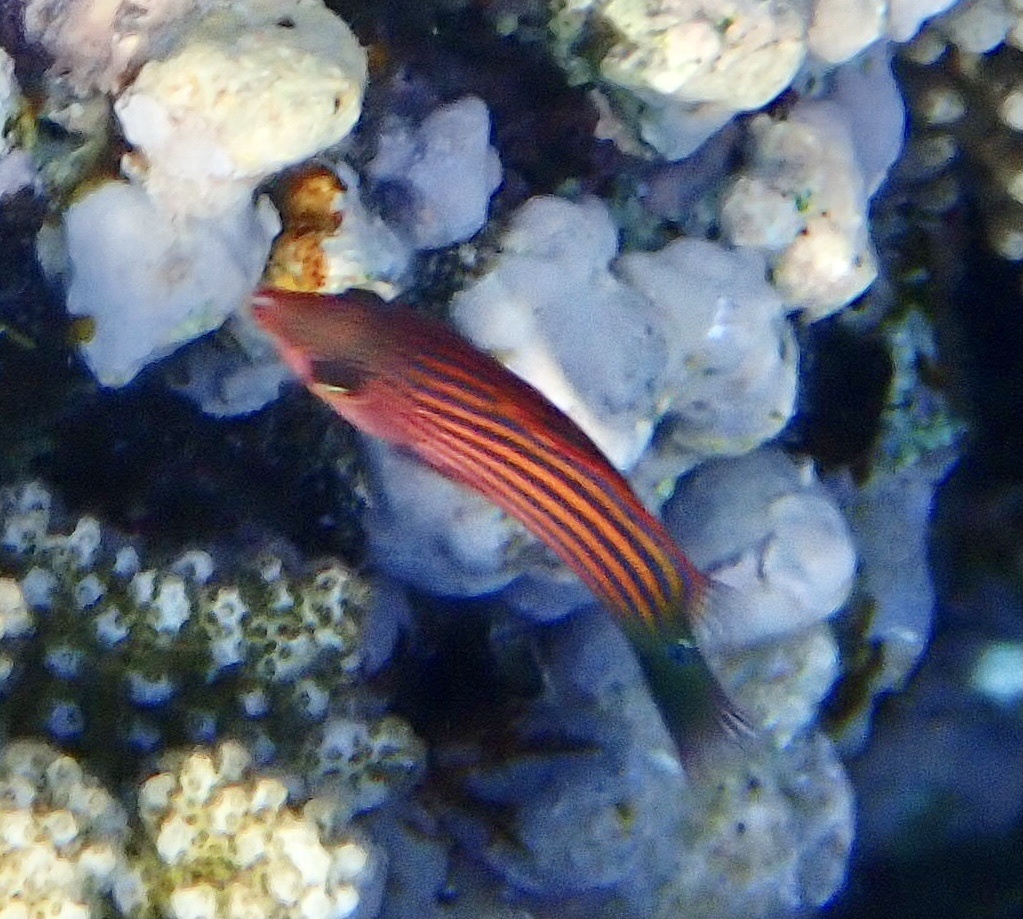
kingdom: Animalia
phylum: Chordata
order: Perciformes
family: Labridae
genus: Pseudocheilinus
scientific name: Pseudocheilinus hexataenia
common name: Sixline wrasse
